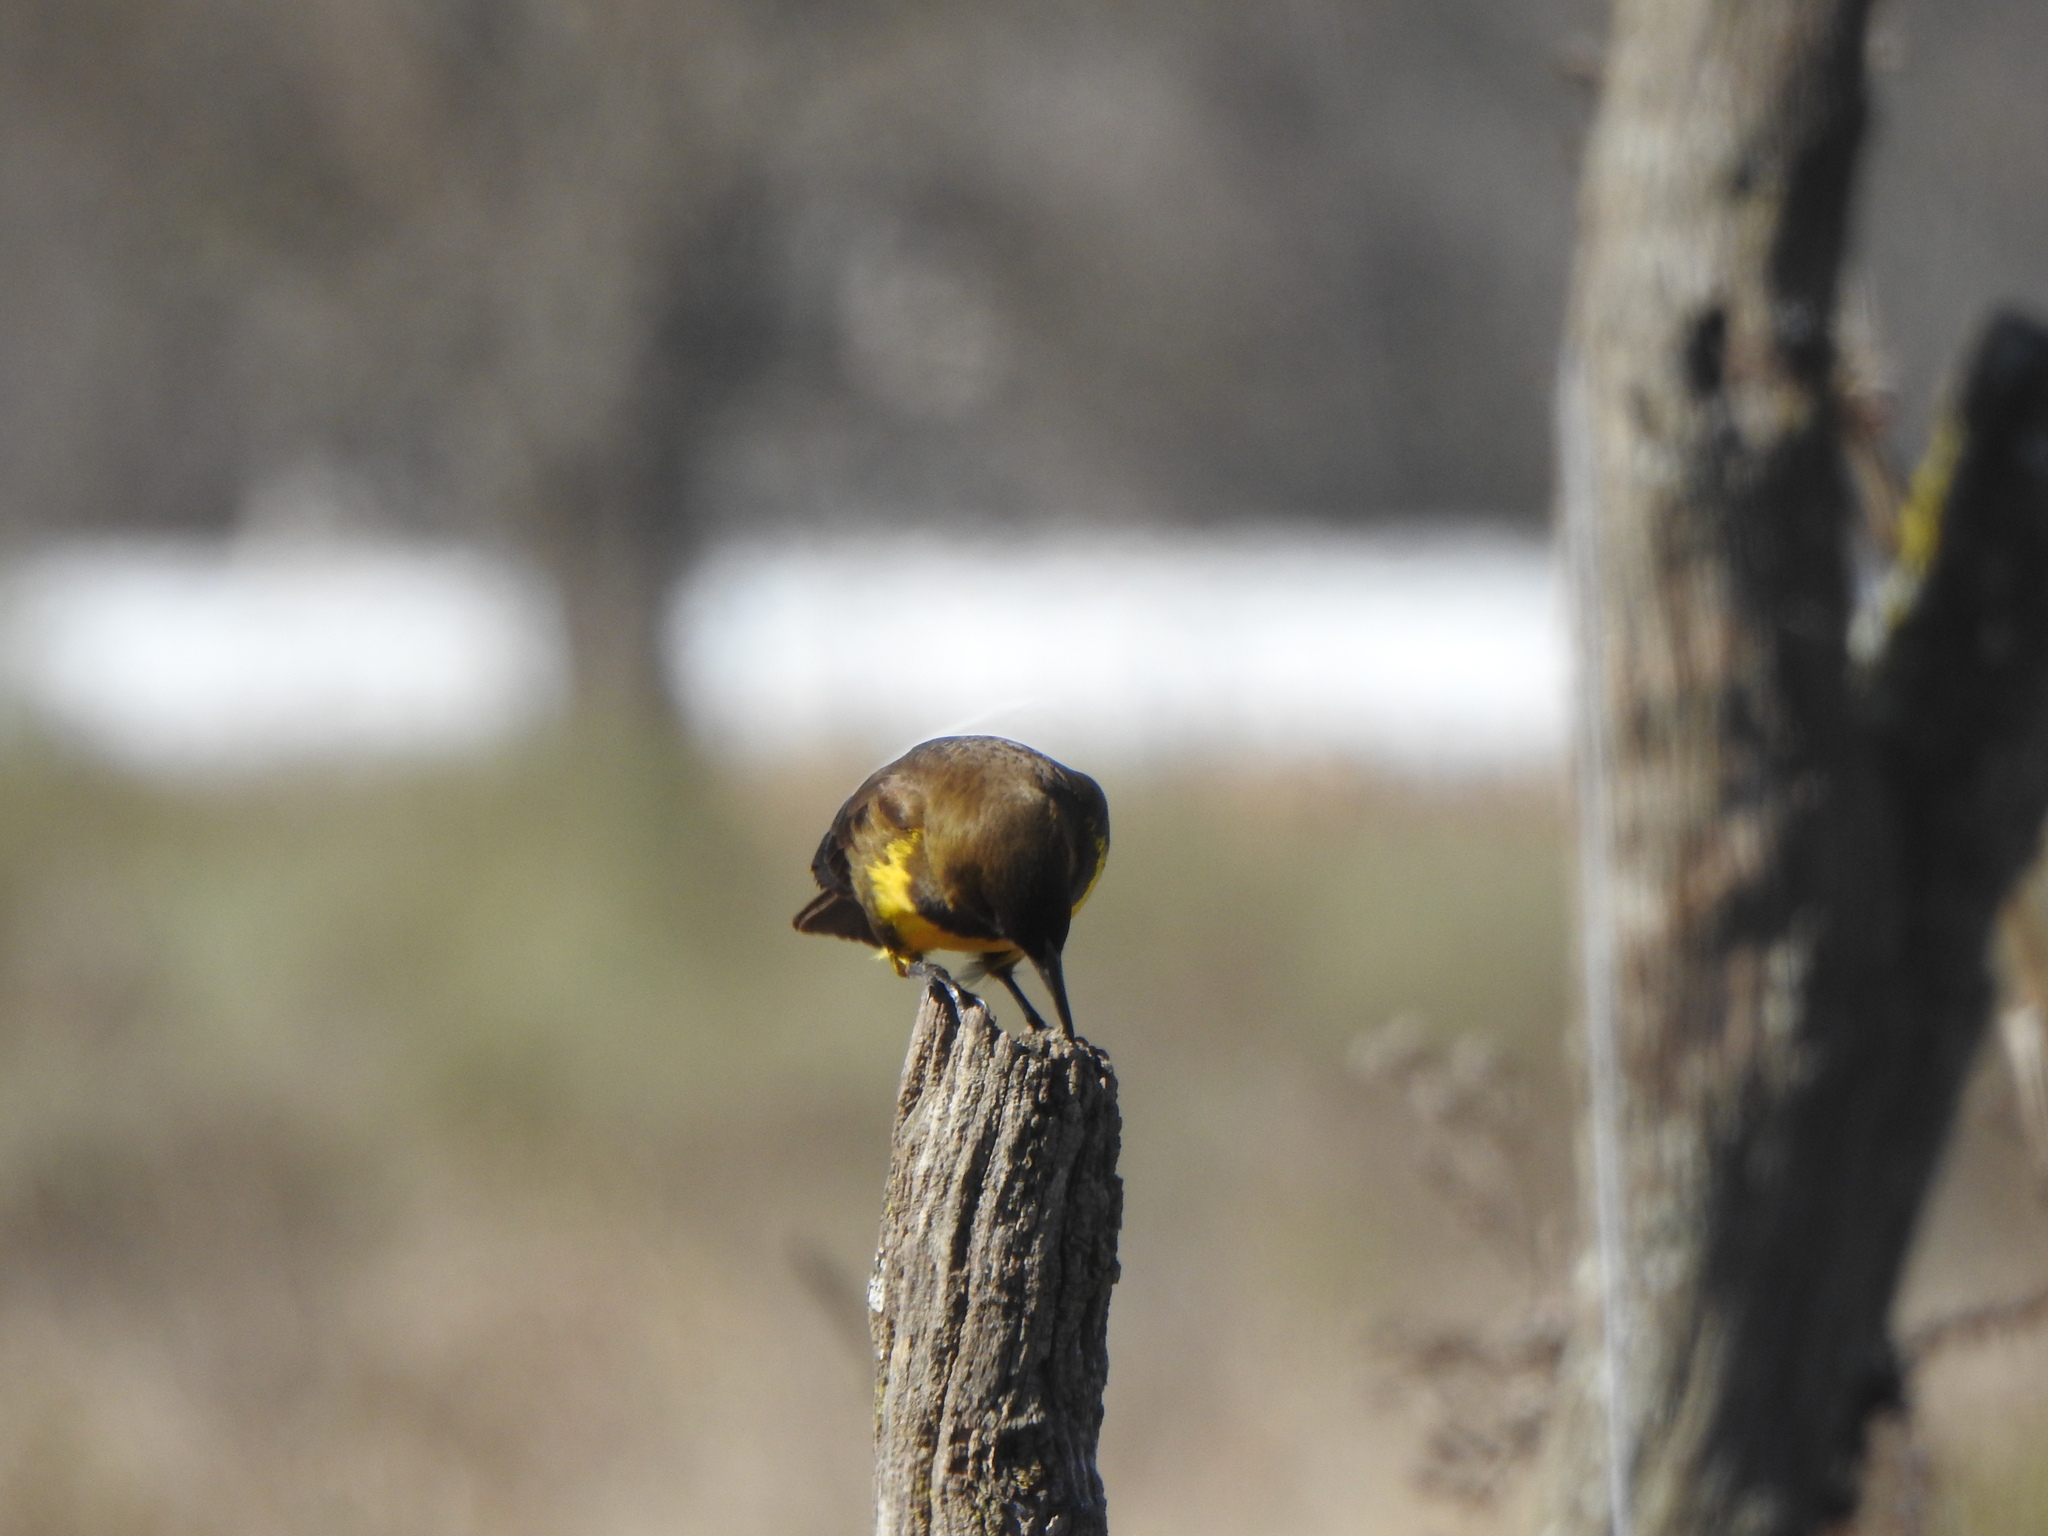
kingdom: Animalia
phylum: Chordata
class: Aves
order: Passeriformes
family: Icteridae
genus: Pseudoleistes
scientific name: Pseudoleistes virescens
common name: Brown-and-yellow marshbird
